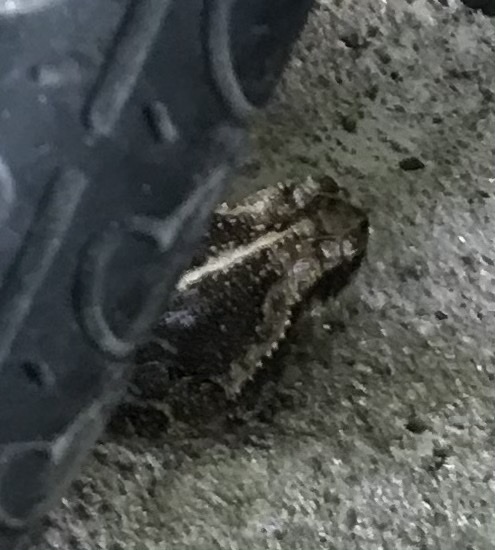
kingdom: Animalia
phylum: Chordata
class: Amphibia
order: Anura
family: Bufonidae
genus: Incilius
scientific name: Incilius nebulifer
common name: Gulf coast toad
